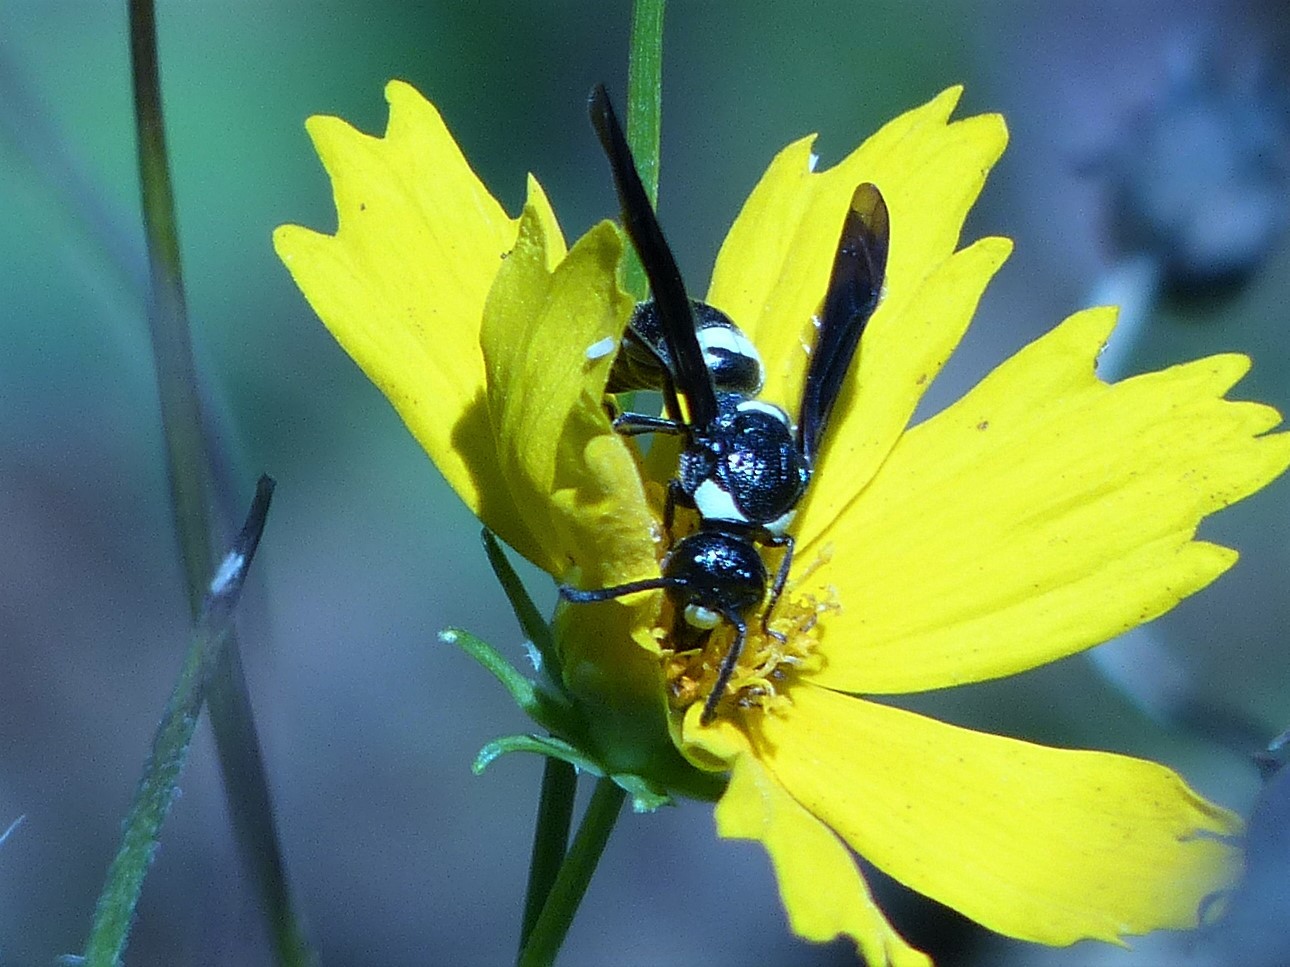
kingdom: Animalia
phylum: Arthropoda
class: Insecta
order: Hymenoptera
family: Eumenidae
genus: Monobia
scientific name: Monobia quadridens
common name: Four-toothed mason wasp
